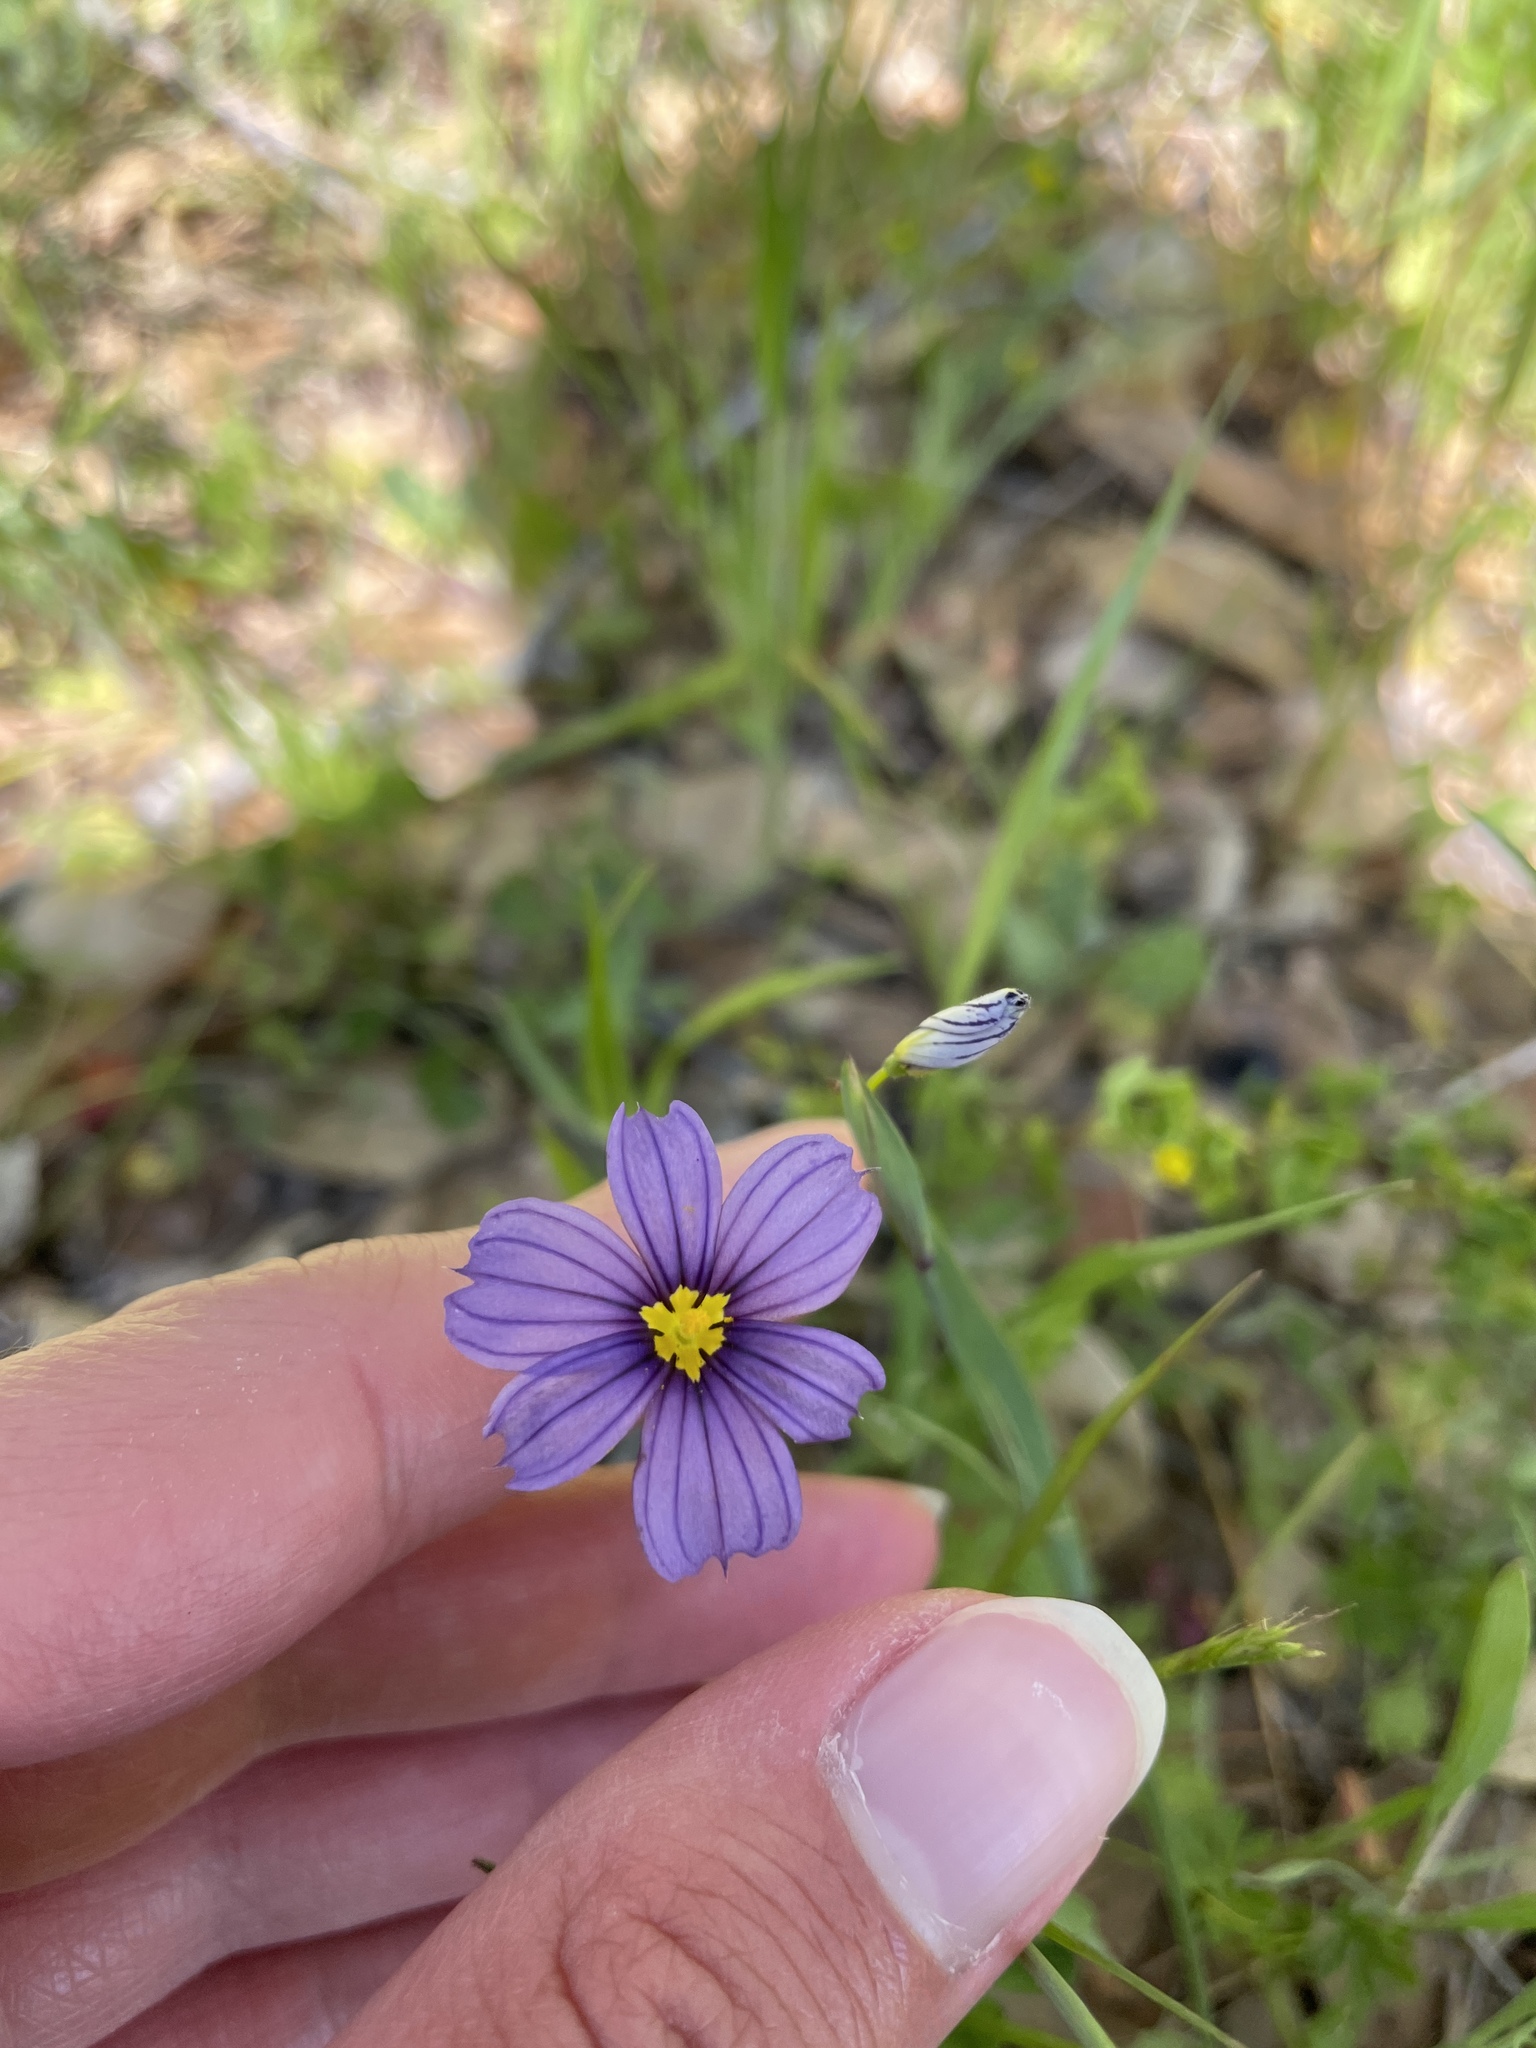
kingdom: Plantae
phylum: Tracheophyta
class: Liliopsida
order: Asparagales
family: Iridaceae
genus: Sisyrinchium
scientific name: Sisyrinchium bellum
